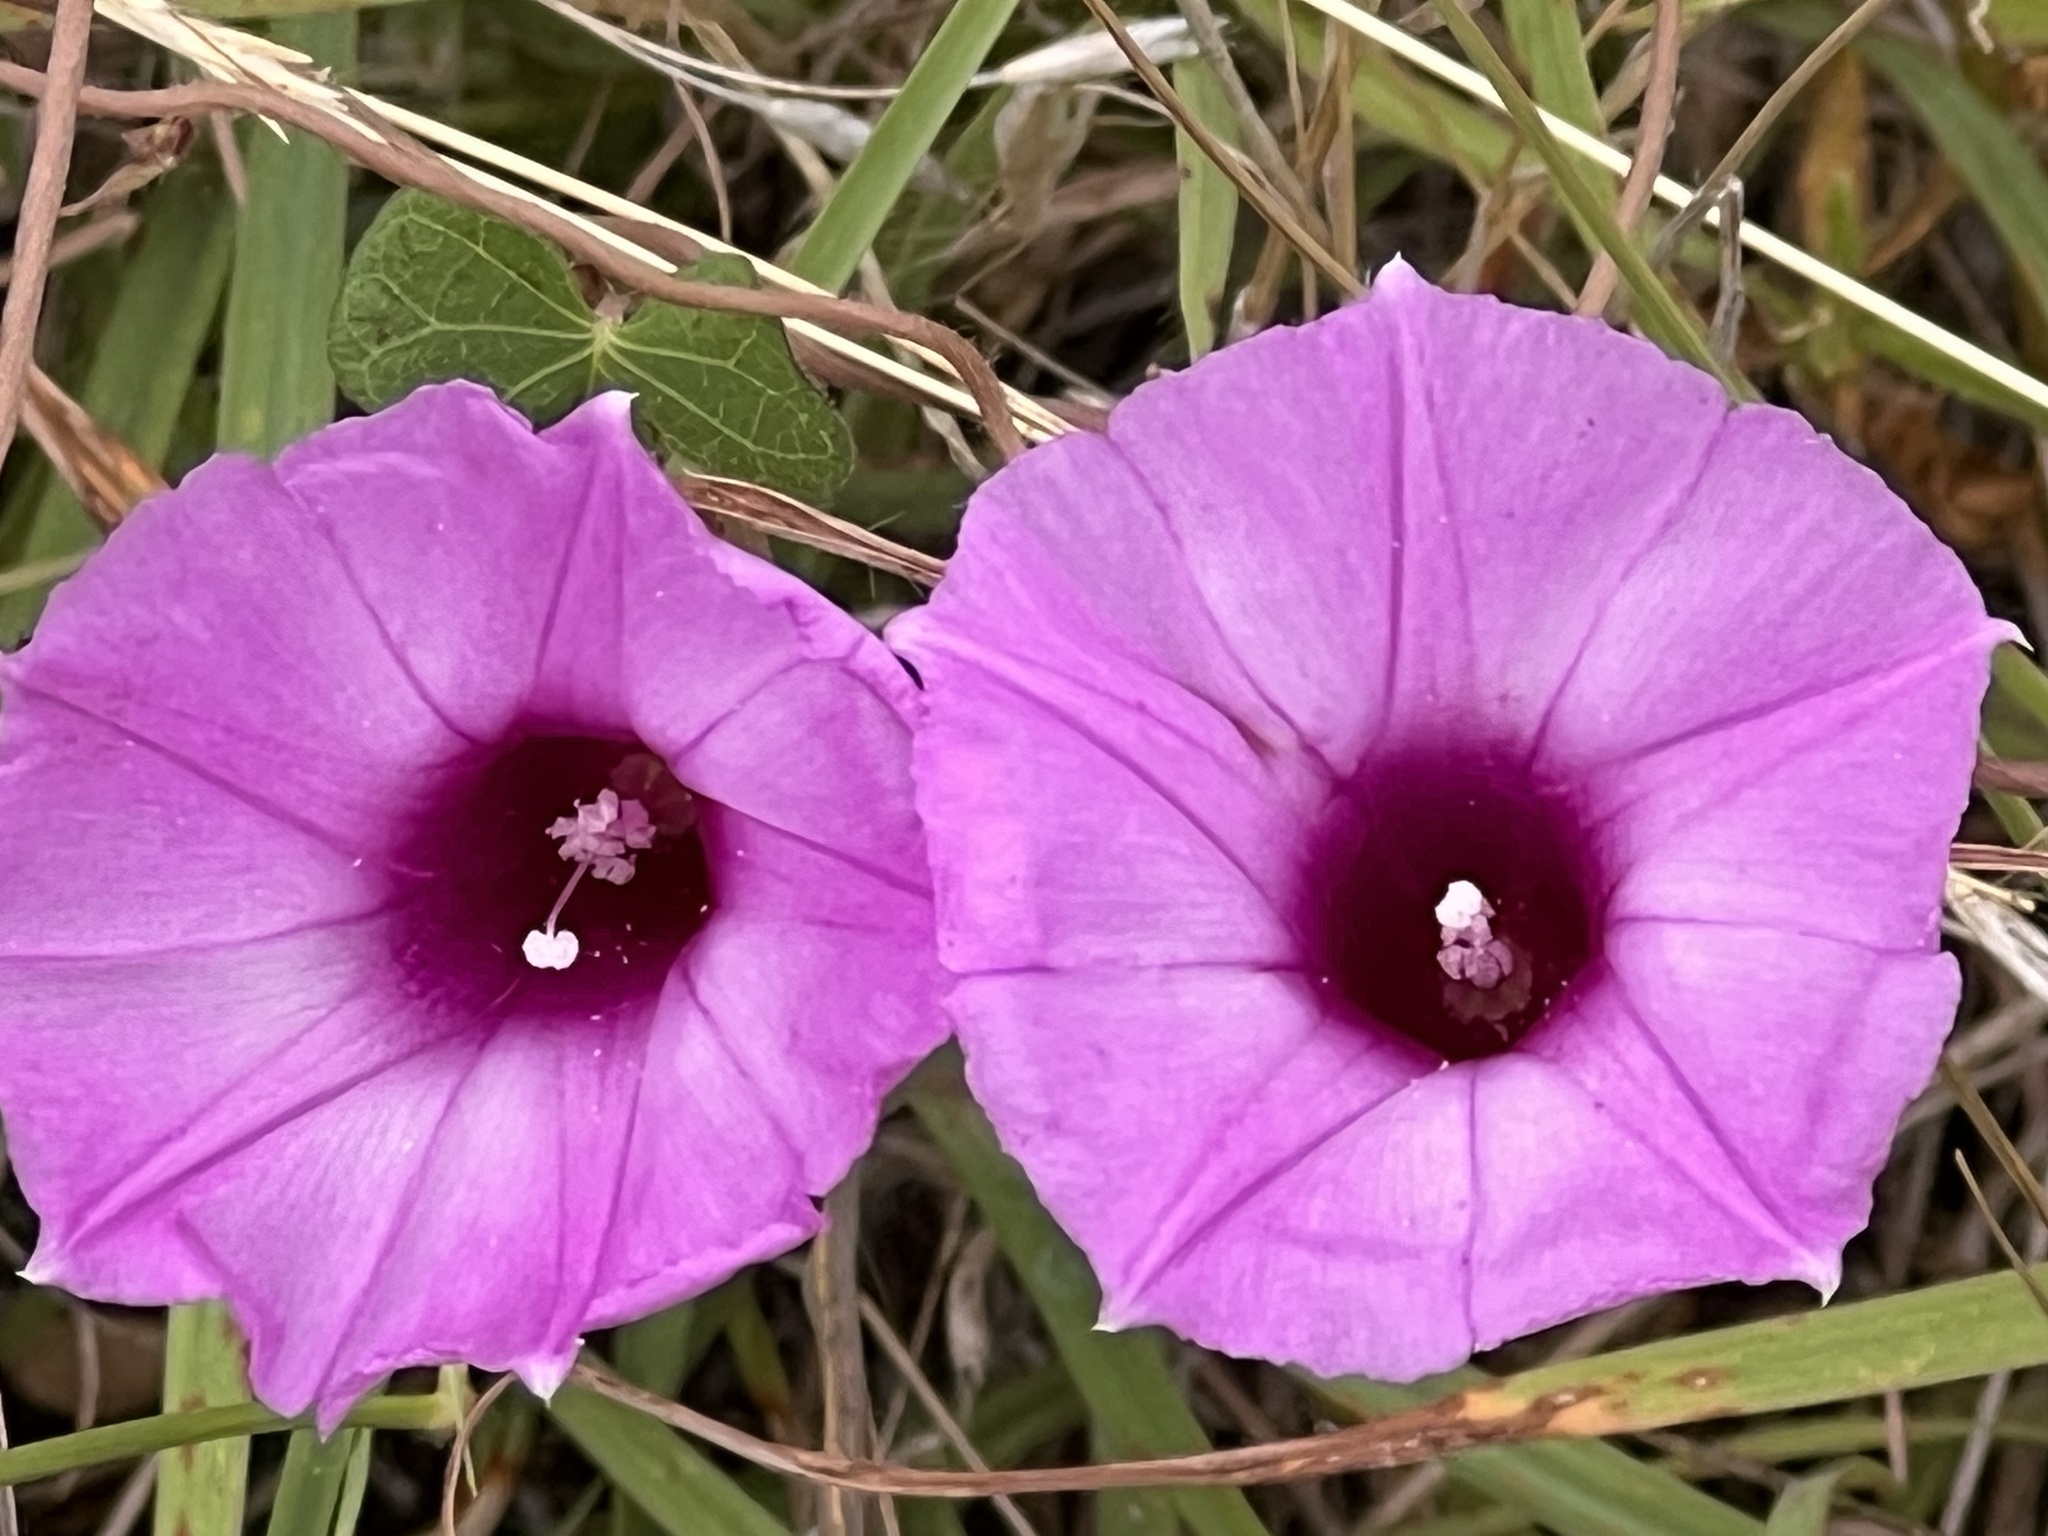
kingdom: Plantae
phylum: Tracheophyta
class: Magnoliopsida
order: Solanales
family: Convolvulaceae
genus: Ipomoea
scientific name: Ipomoea cordatotriloba
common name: Cotton morning glory
